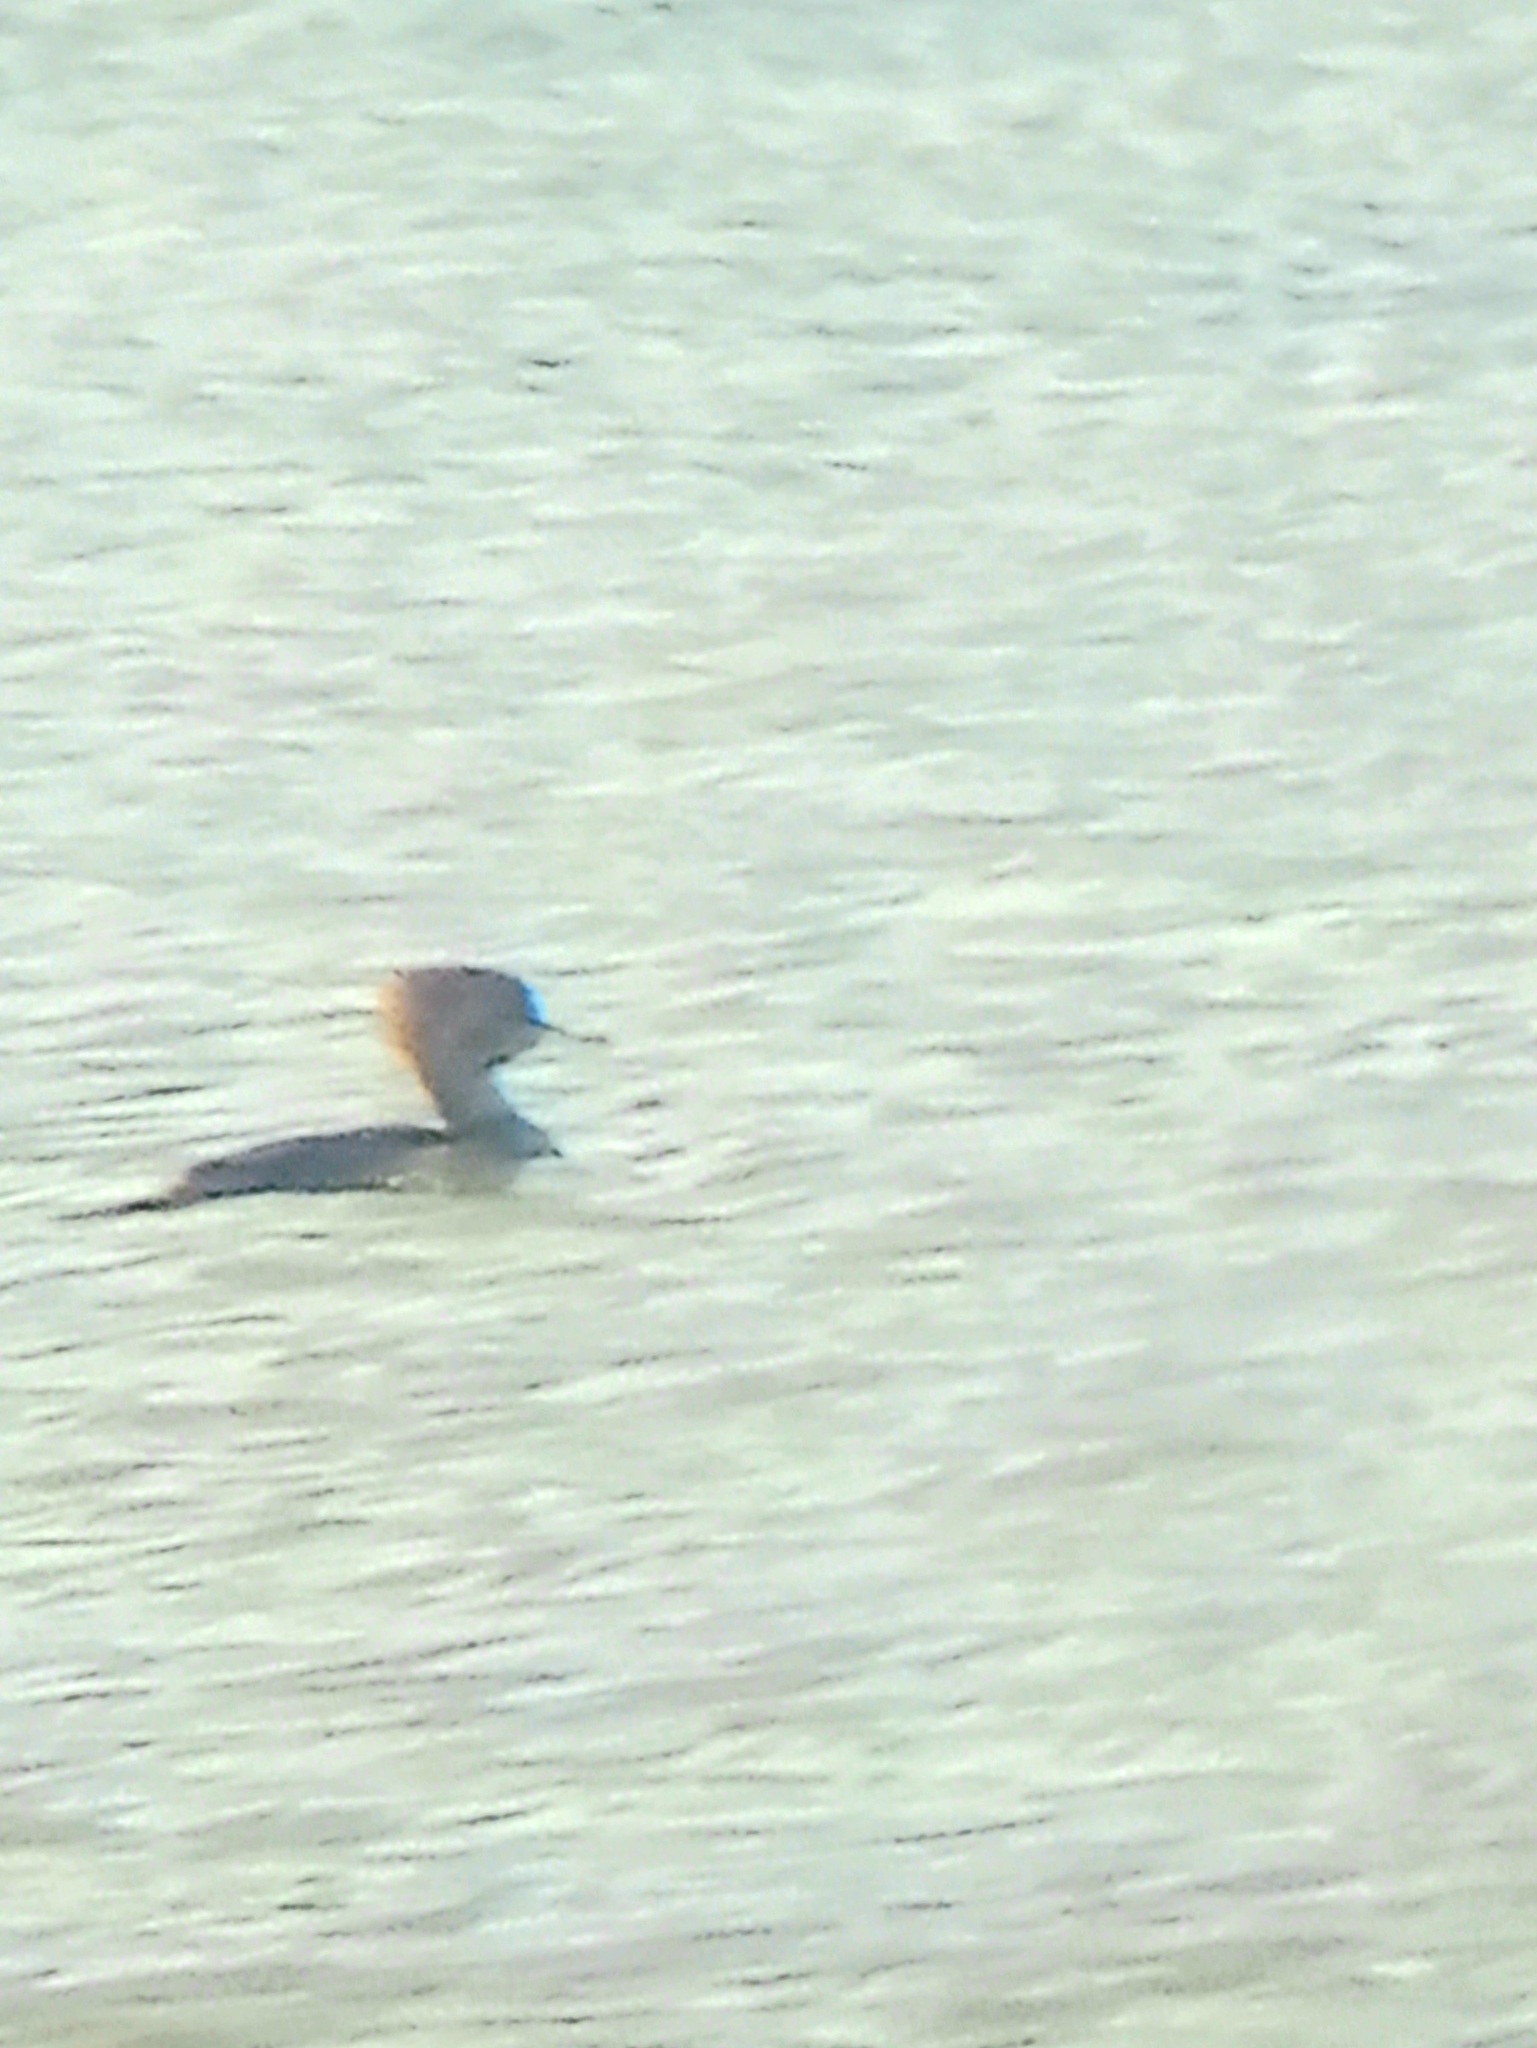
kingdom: Animalia
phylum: Chordata
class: Aves
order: Anseriformes
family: Anatidae
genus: Lophodytes
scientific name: Lophodytes cucullatus
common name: Hooded merganser
